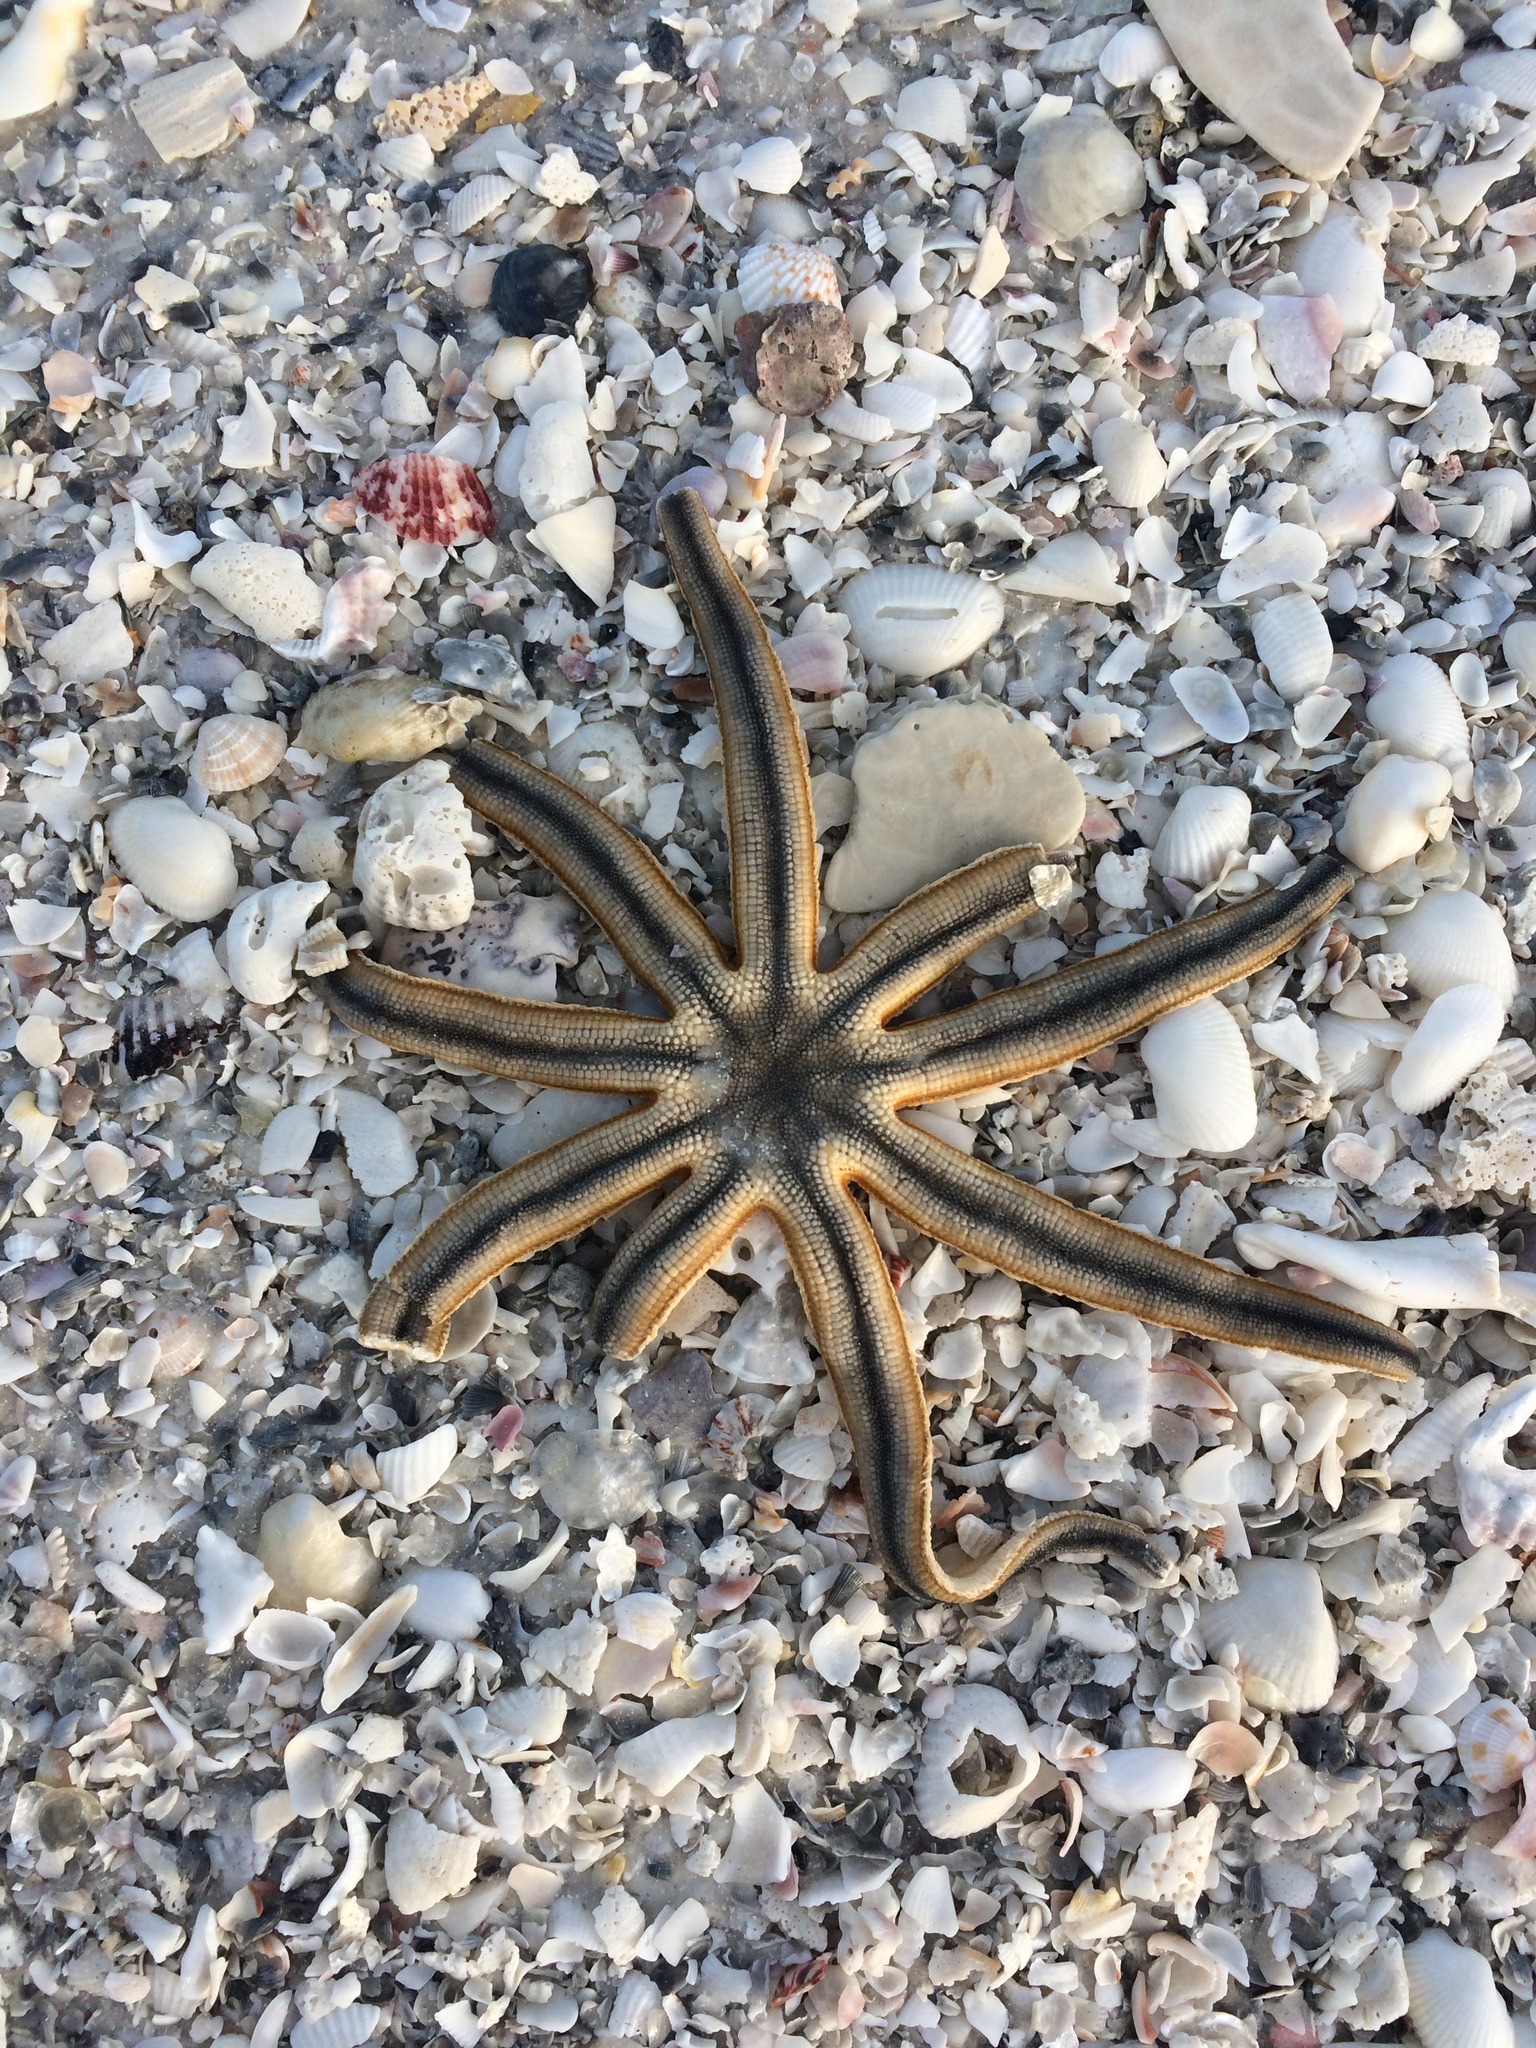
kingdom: Animalia
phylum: Echinodermata
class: Asteroidea
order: Paxillosida
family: Luidiidae
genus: Luidia
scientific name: Luidia senegalensis
